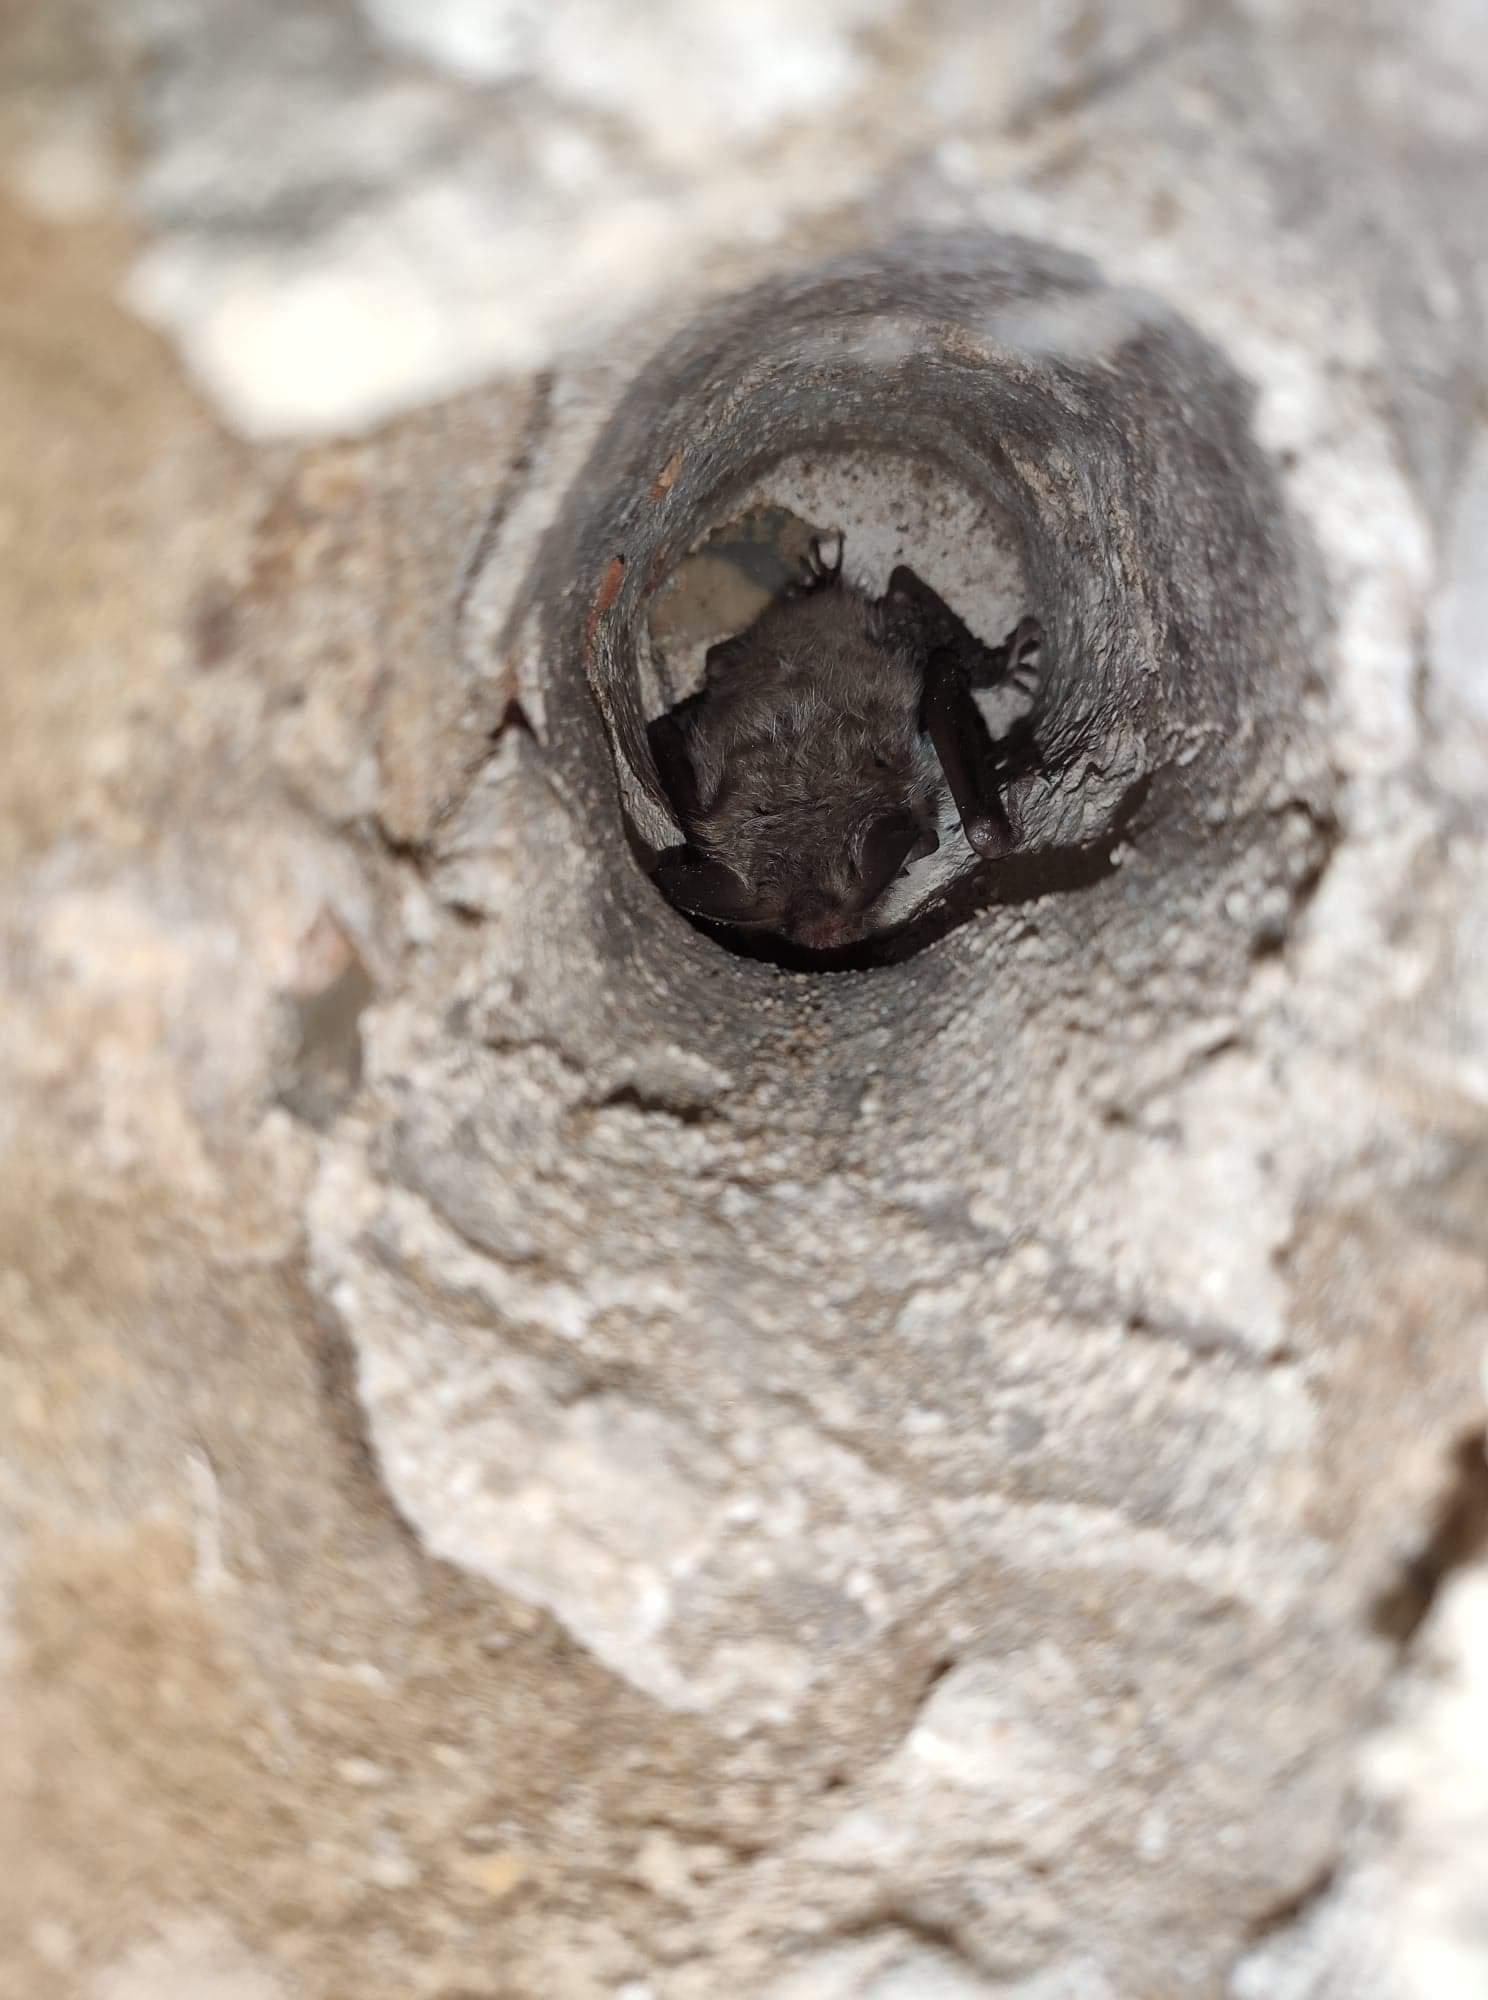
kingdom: Animalia
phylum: Chordata
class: Mammalia
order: Chiroptera
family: Vespertilionidae
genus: Myotis
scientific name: Myotis bechsteinii
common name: Bechstein's myotis
